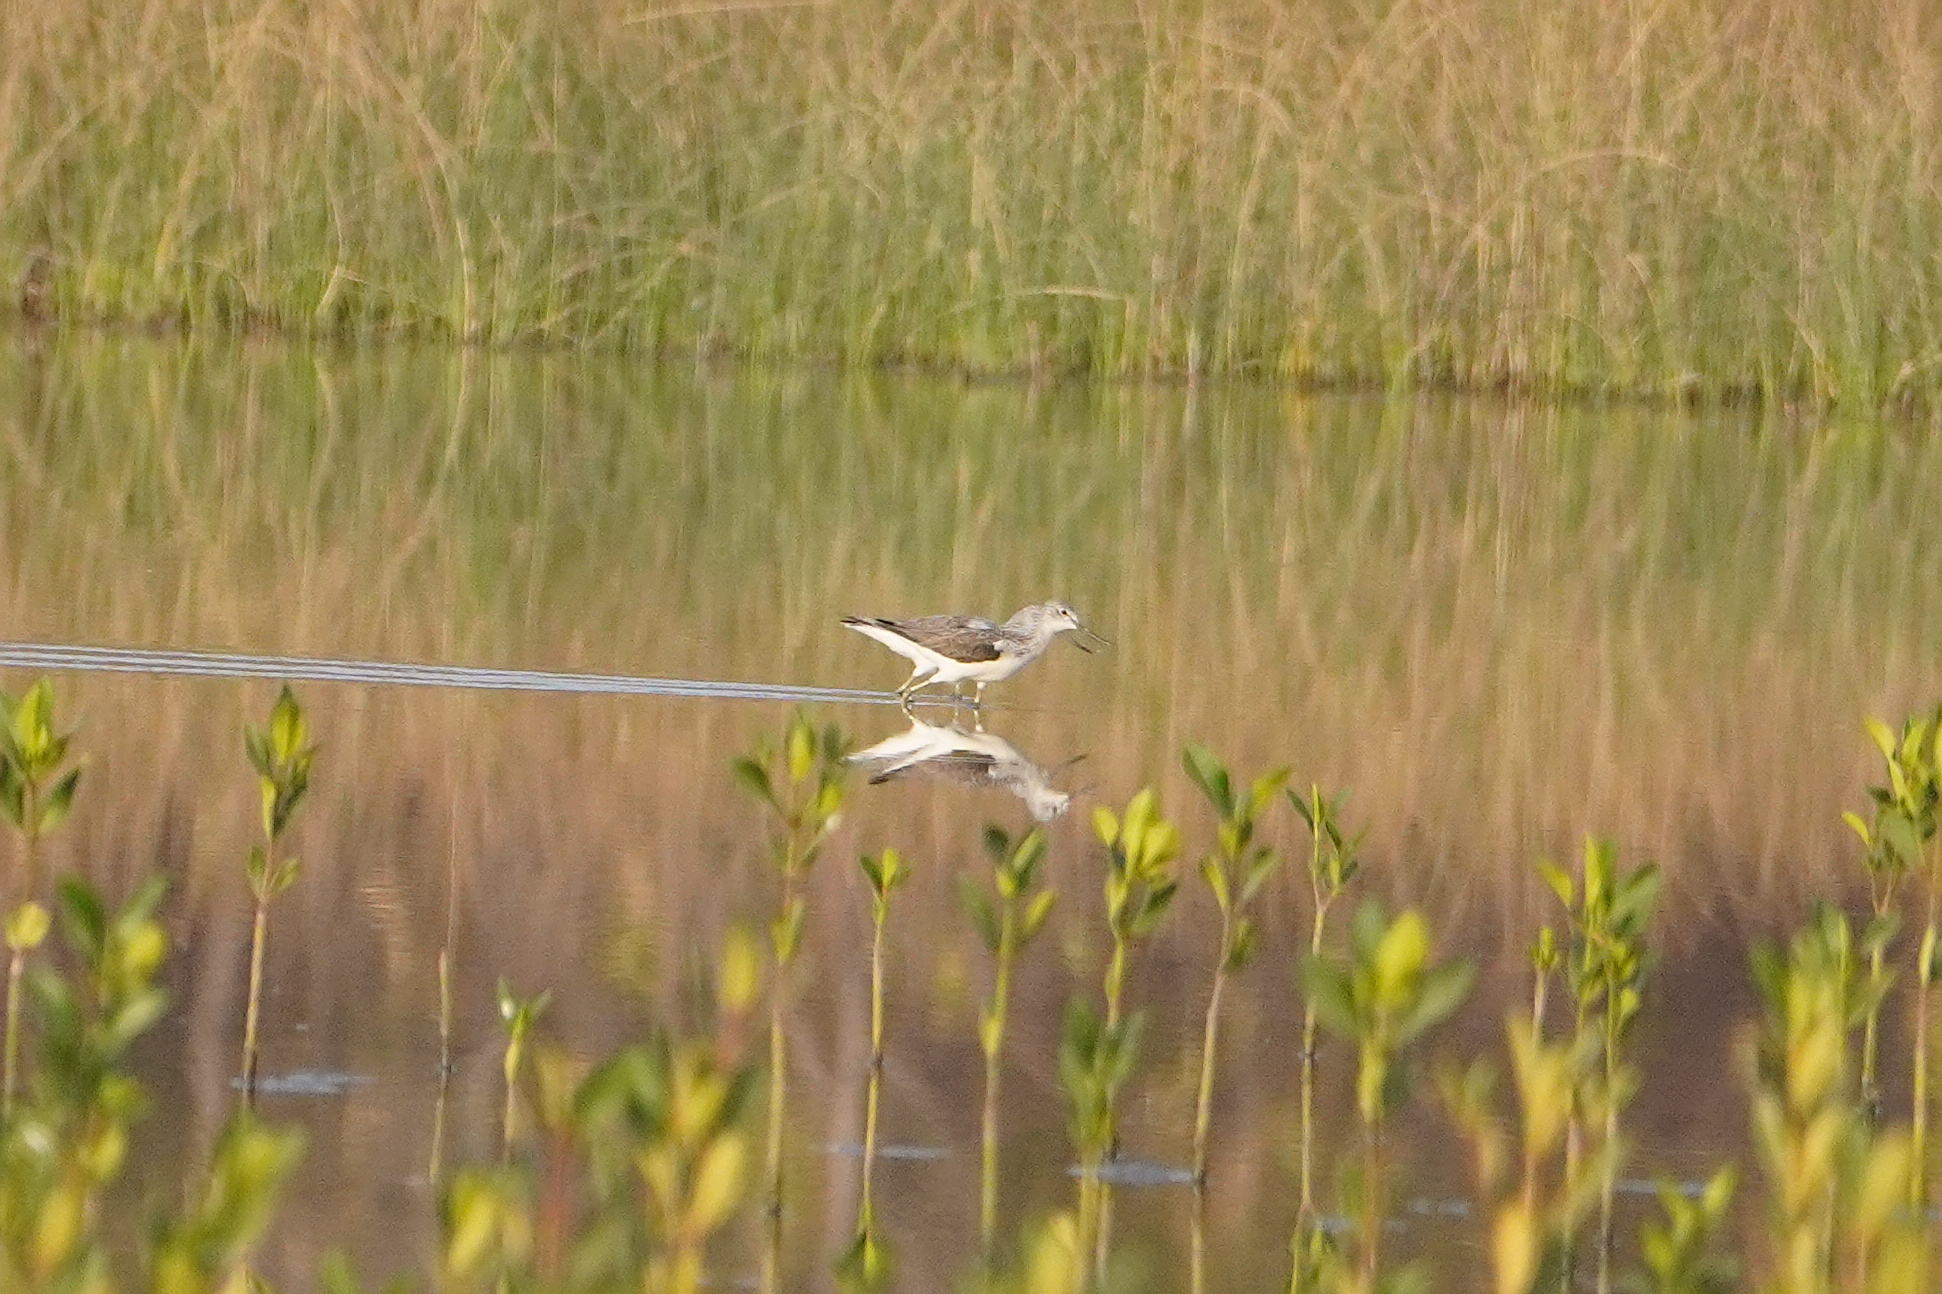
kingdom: Animalia
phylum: Chordata
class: Aves
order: Charadriiformes
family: Scolopacidae
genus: Tringa
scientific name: Tringa nebularia
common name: Common greenshank
